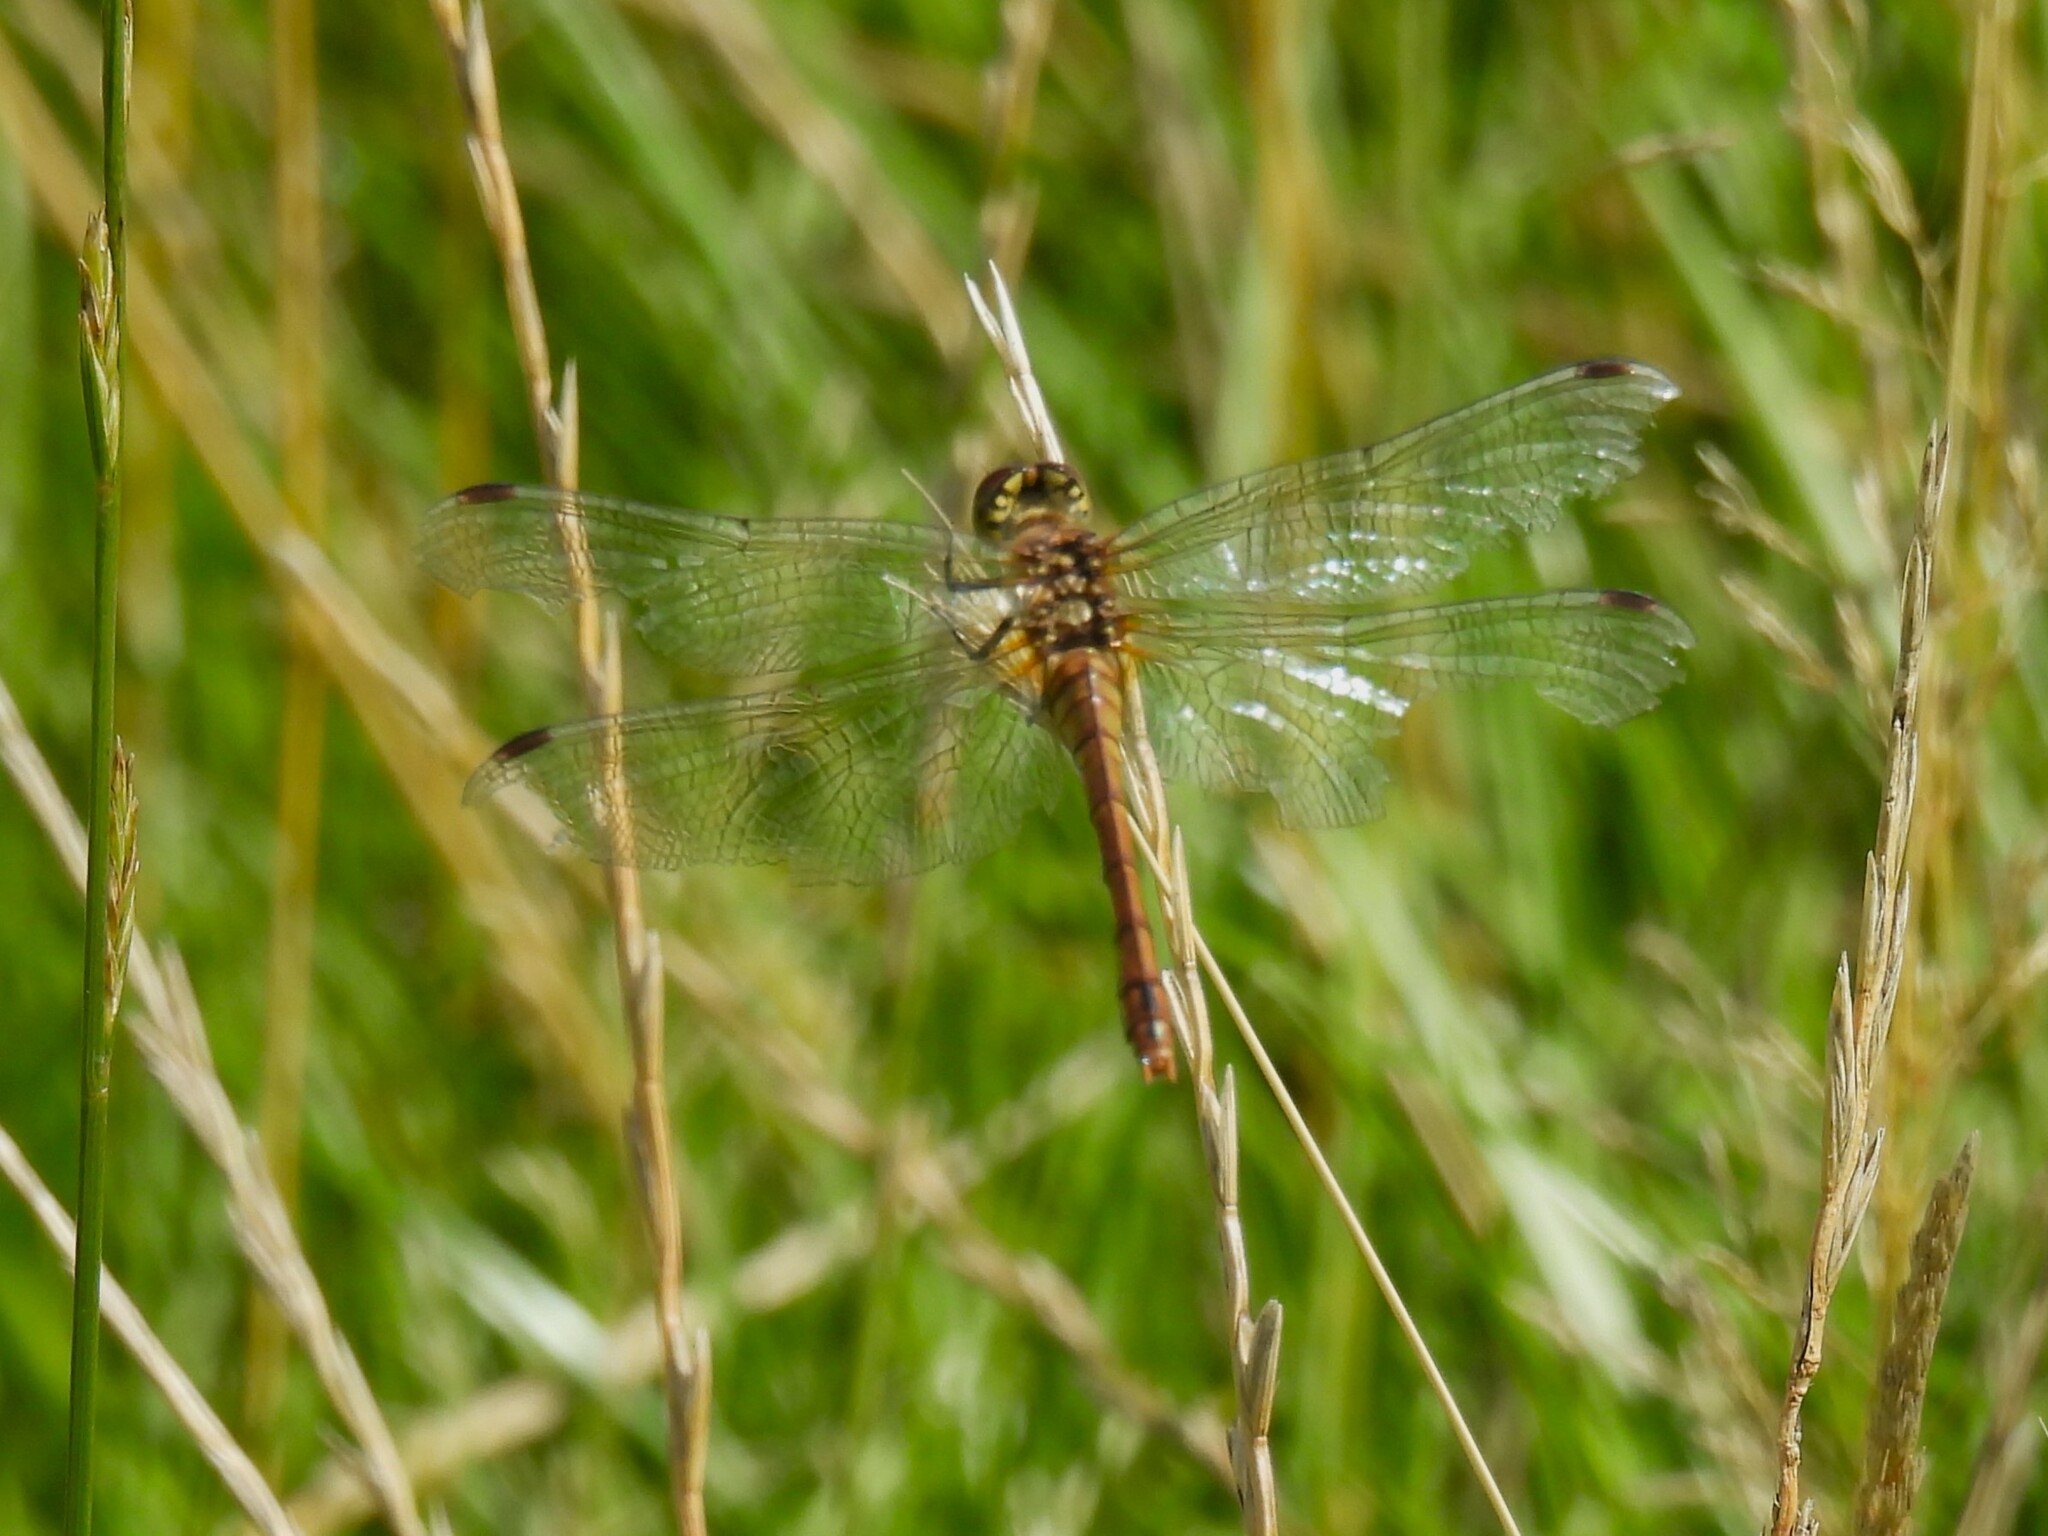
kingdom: Animalia
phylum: Arthropoda
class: Insecta
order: Odonata
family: Libellulidae
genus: Sympetrum
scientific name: Sympetrum sanguineum
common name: Ruddy darter
